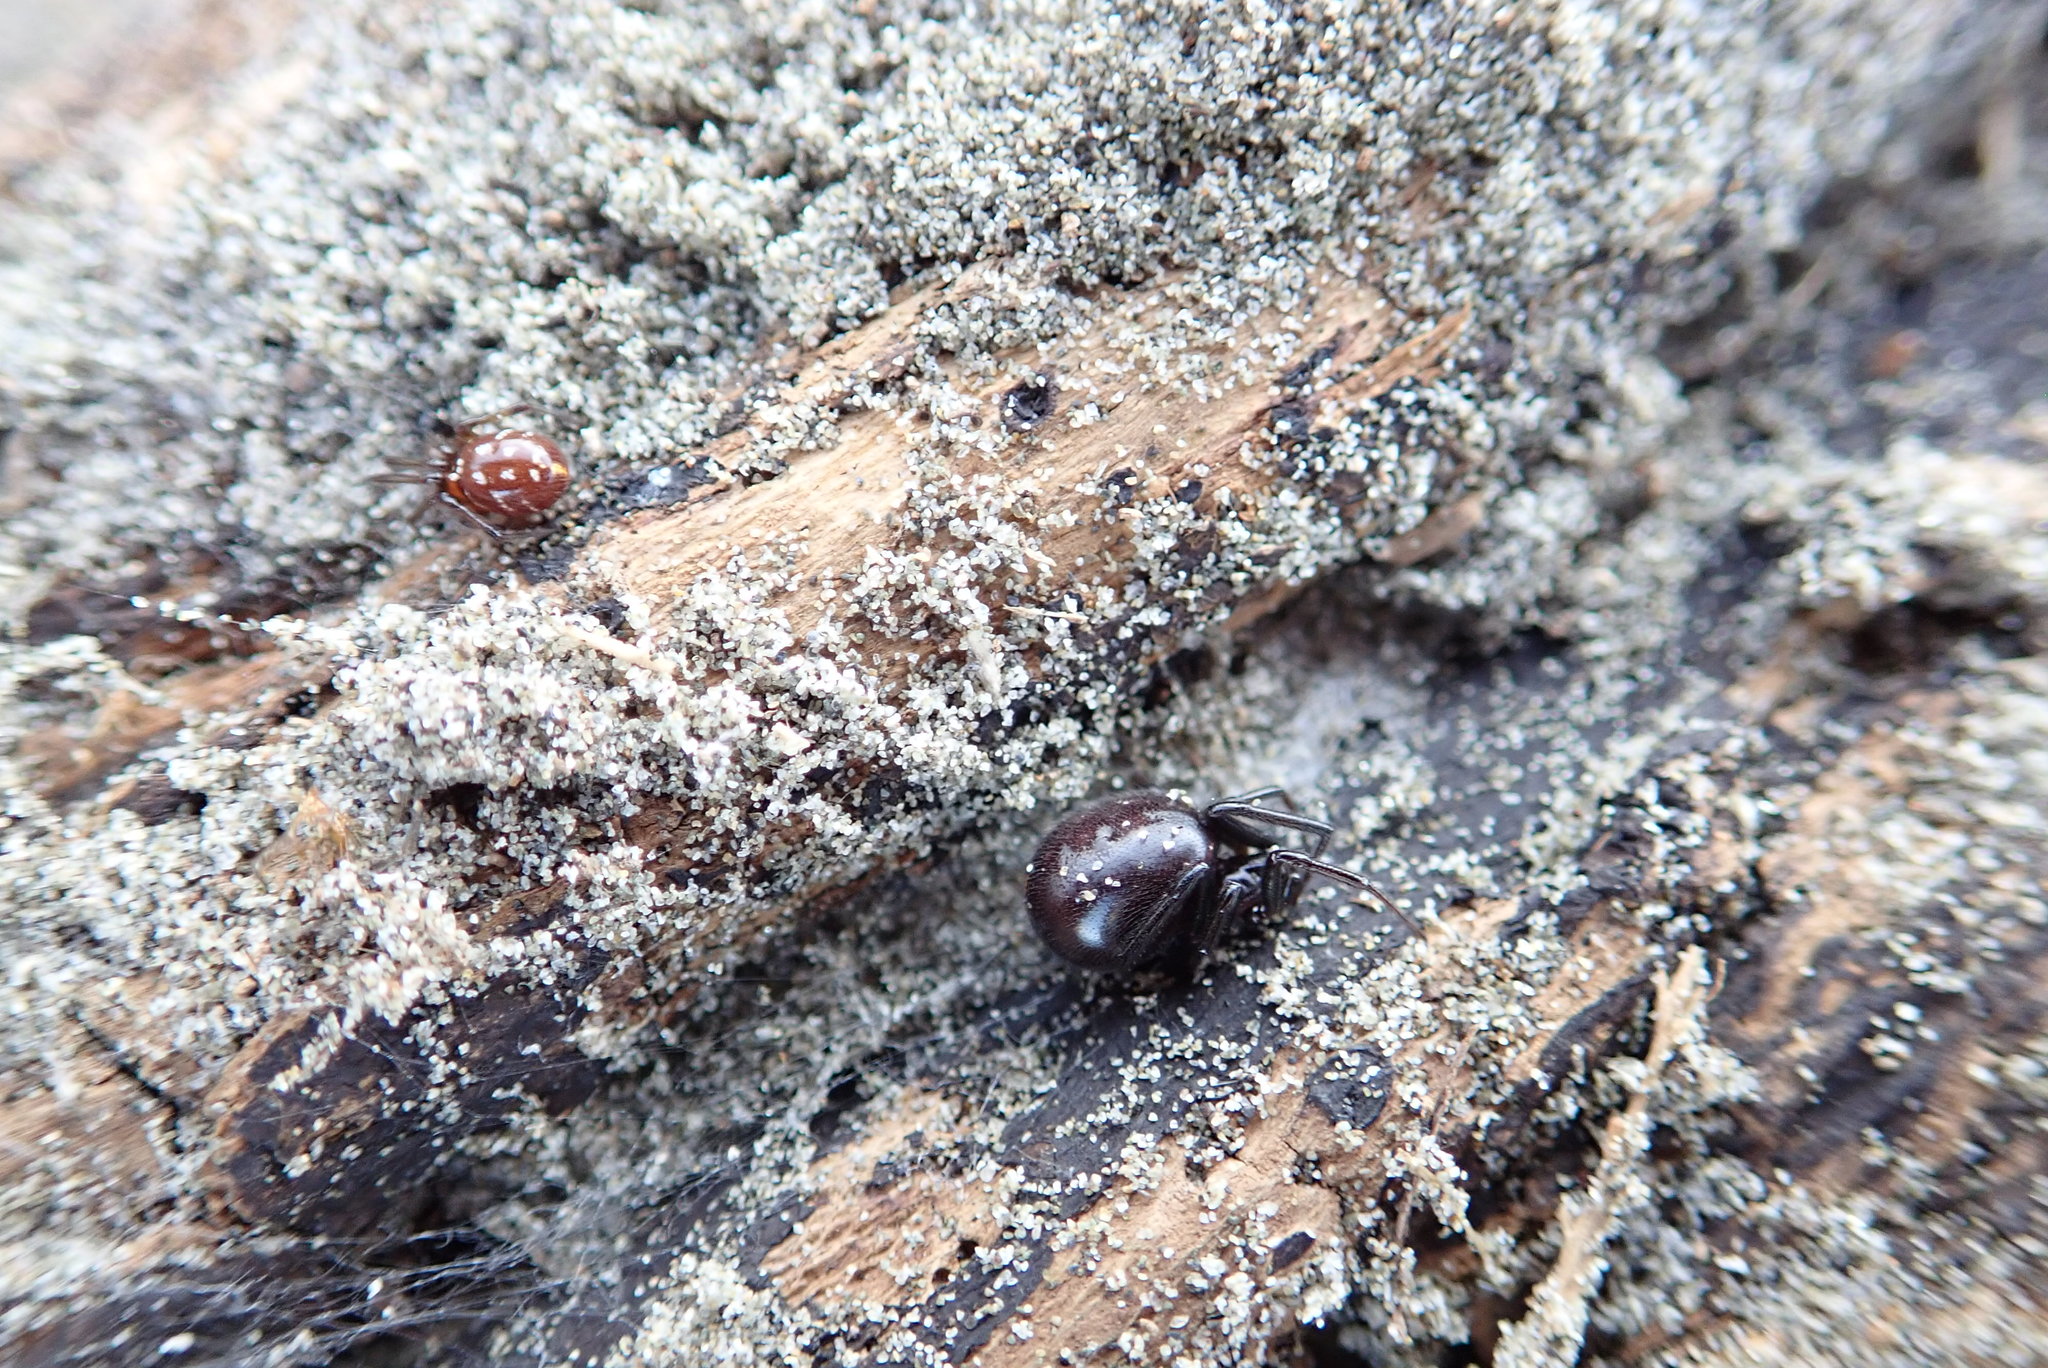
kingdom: Animalia
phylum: Arthropoda
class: Arachnida
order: Araneae
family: Theridiidae
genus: Steatoda
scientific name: Steatoda capensis
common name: Cobweb weaver
